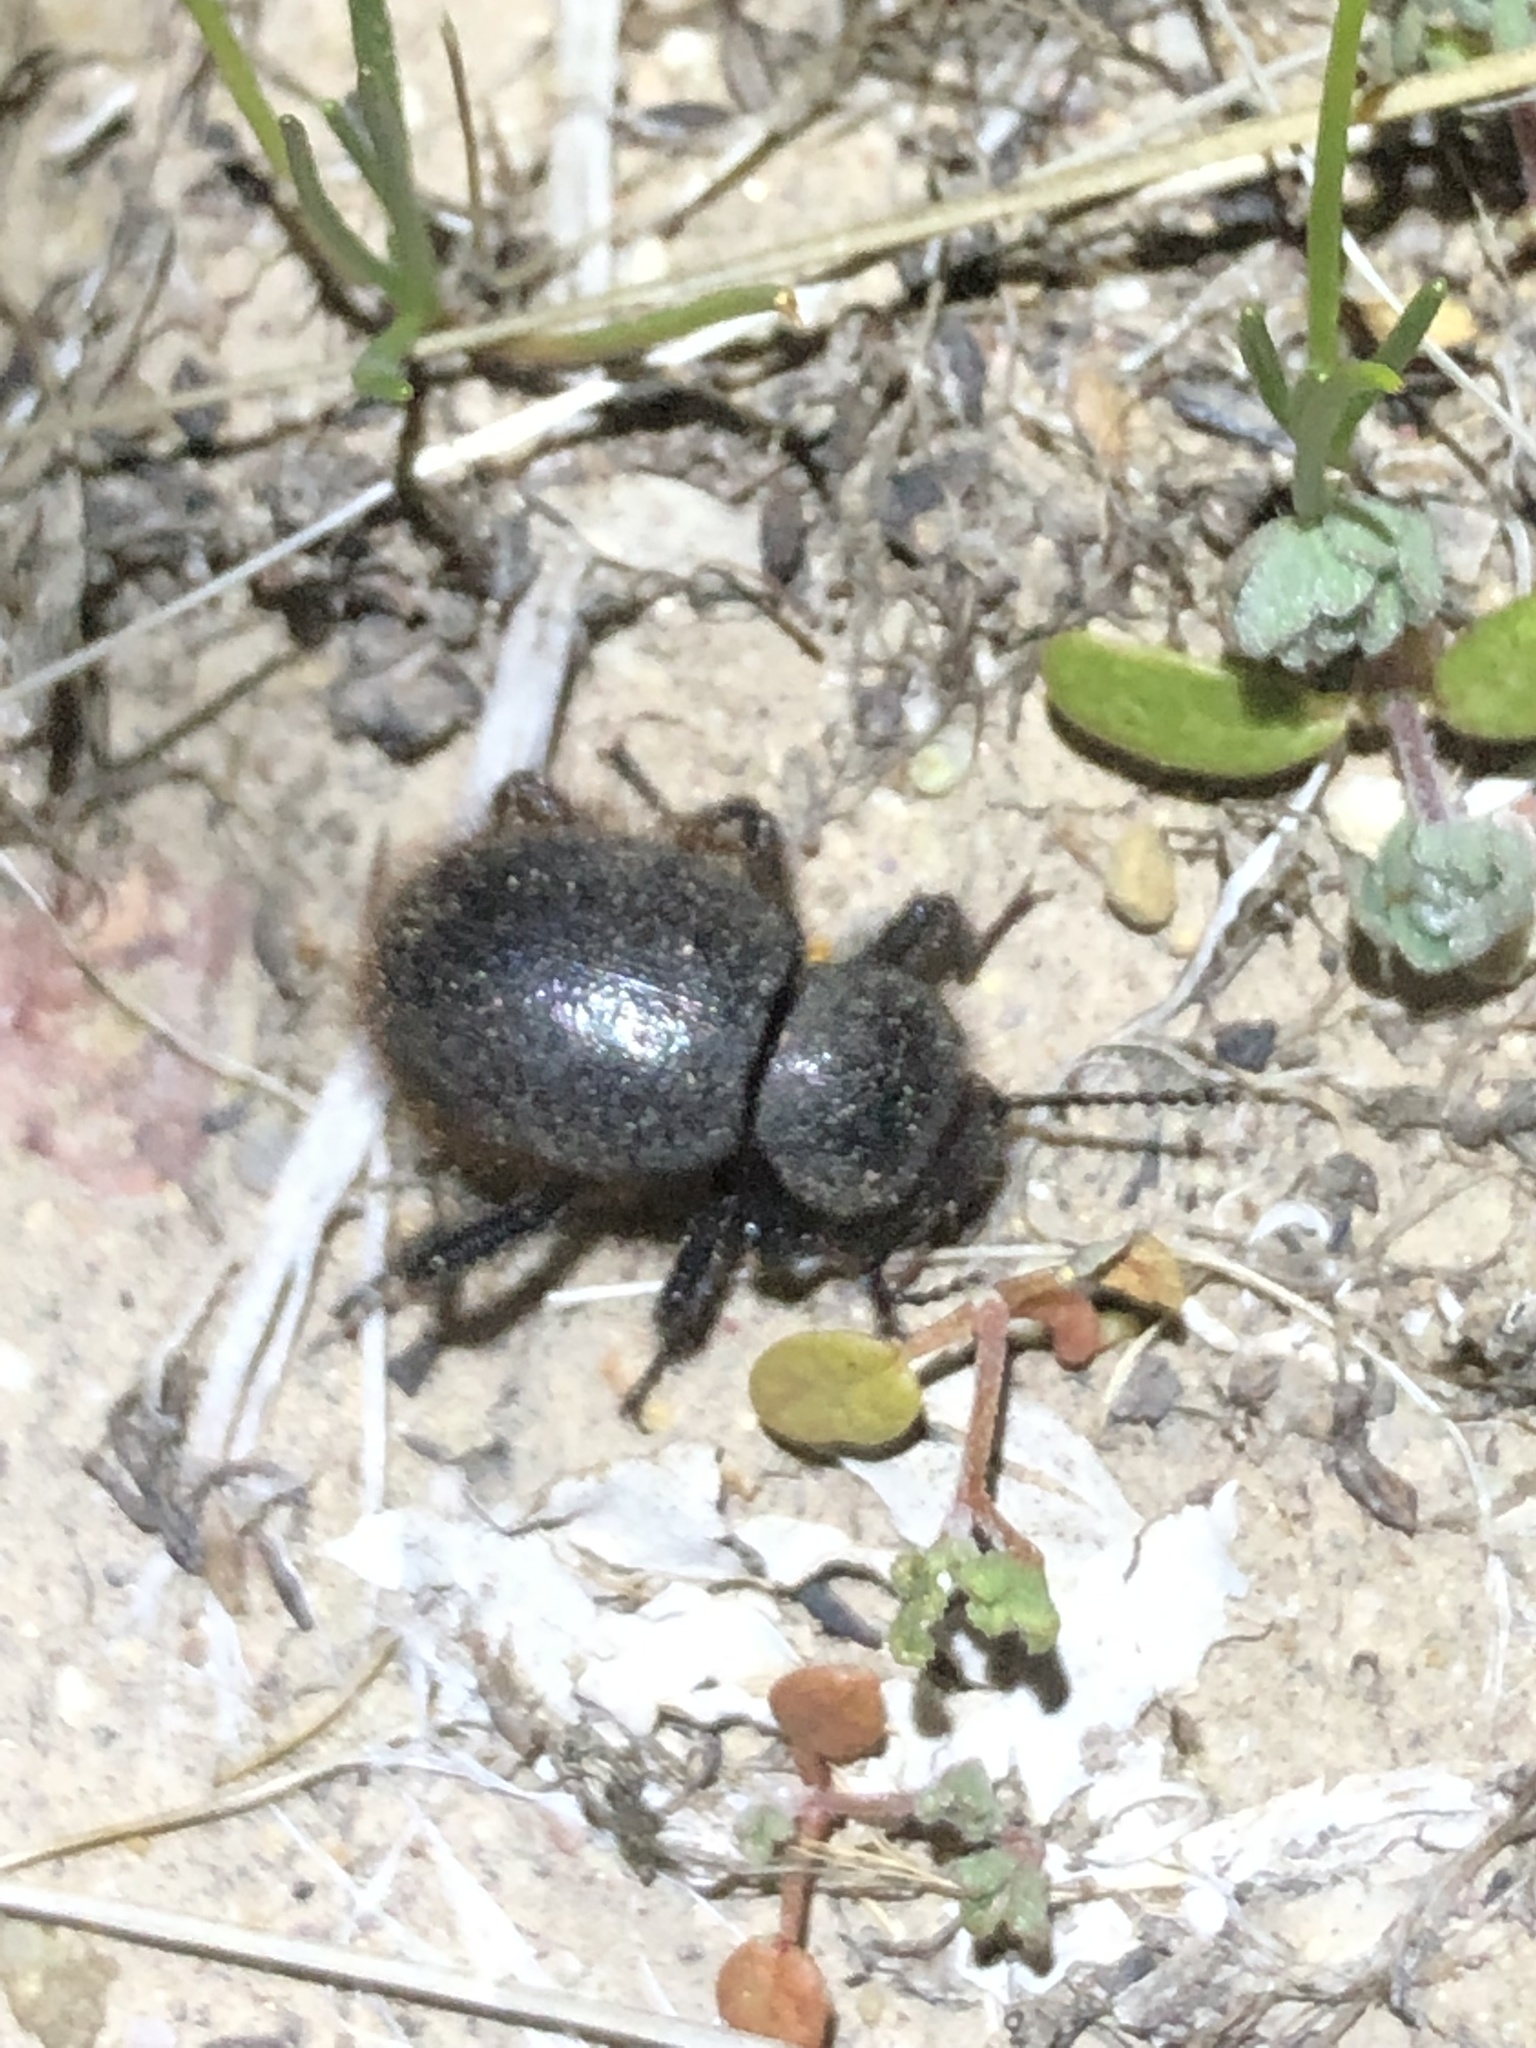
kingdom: Animalia
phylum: Arthropoda
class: Insecta
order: Coleoptera
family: Tenebrionidae
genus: Eleodes
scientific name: Eleodes osculans
